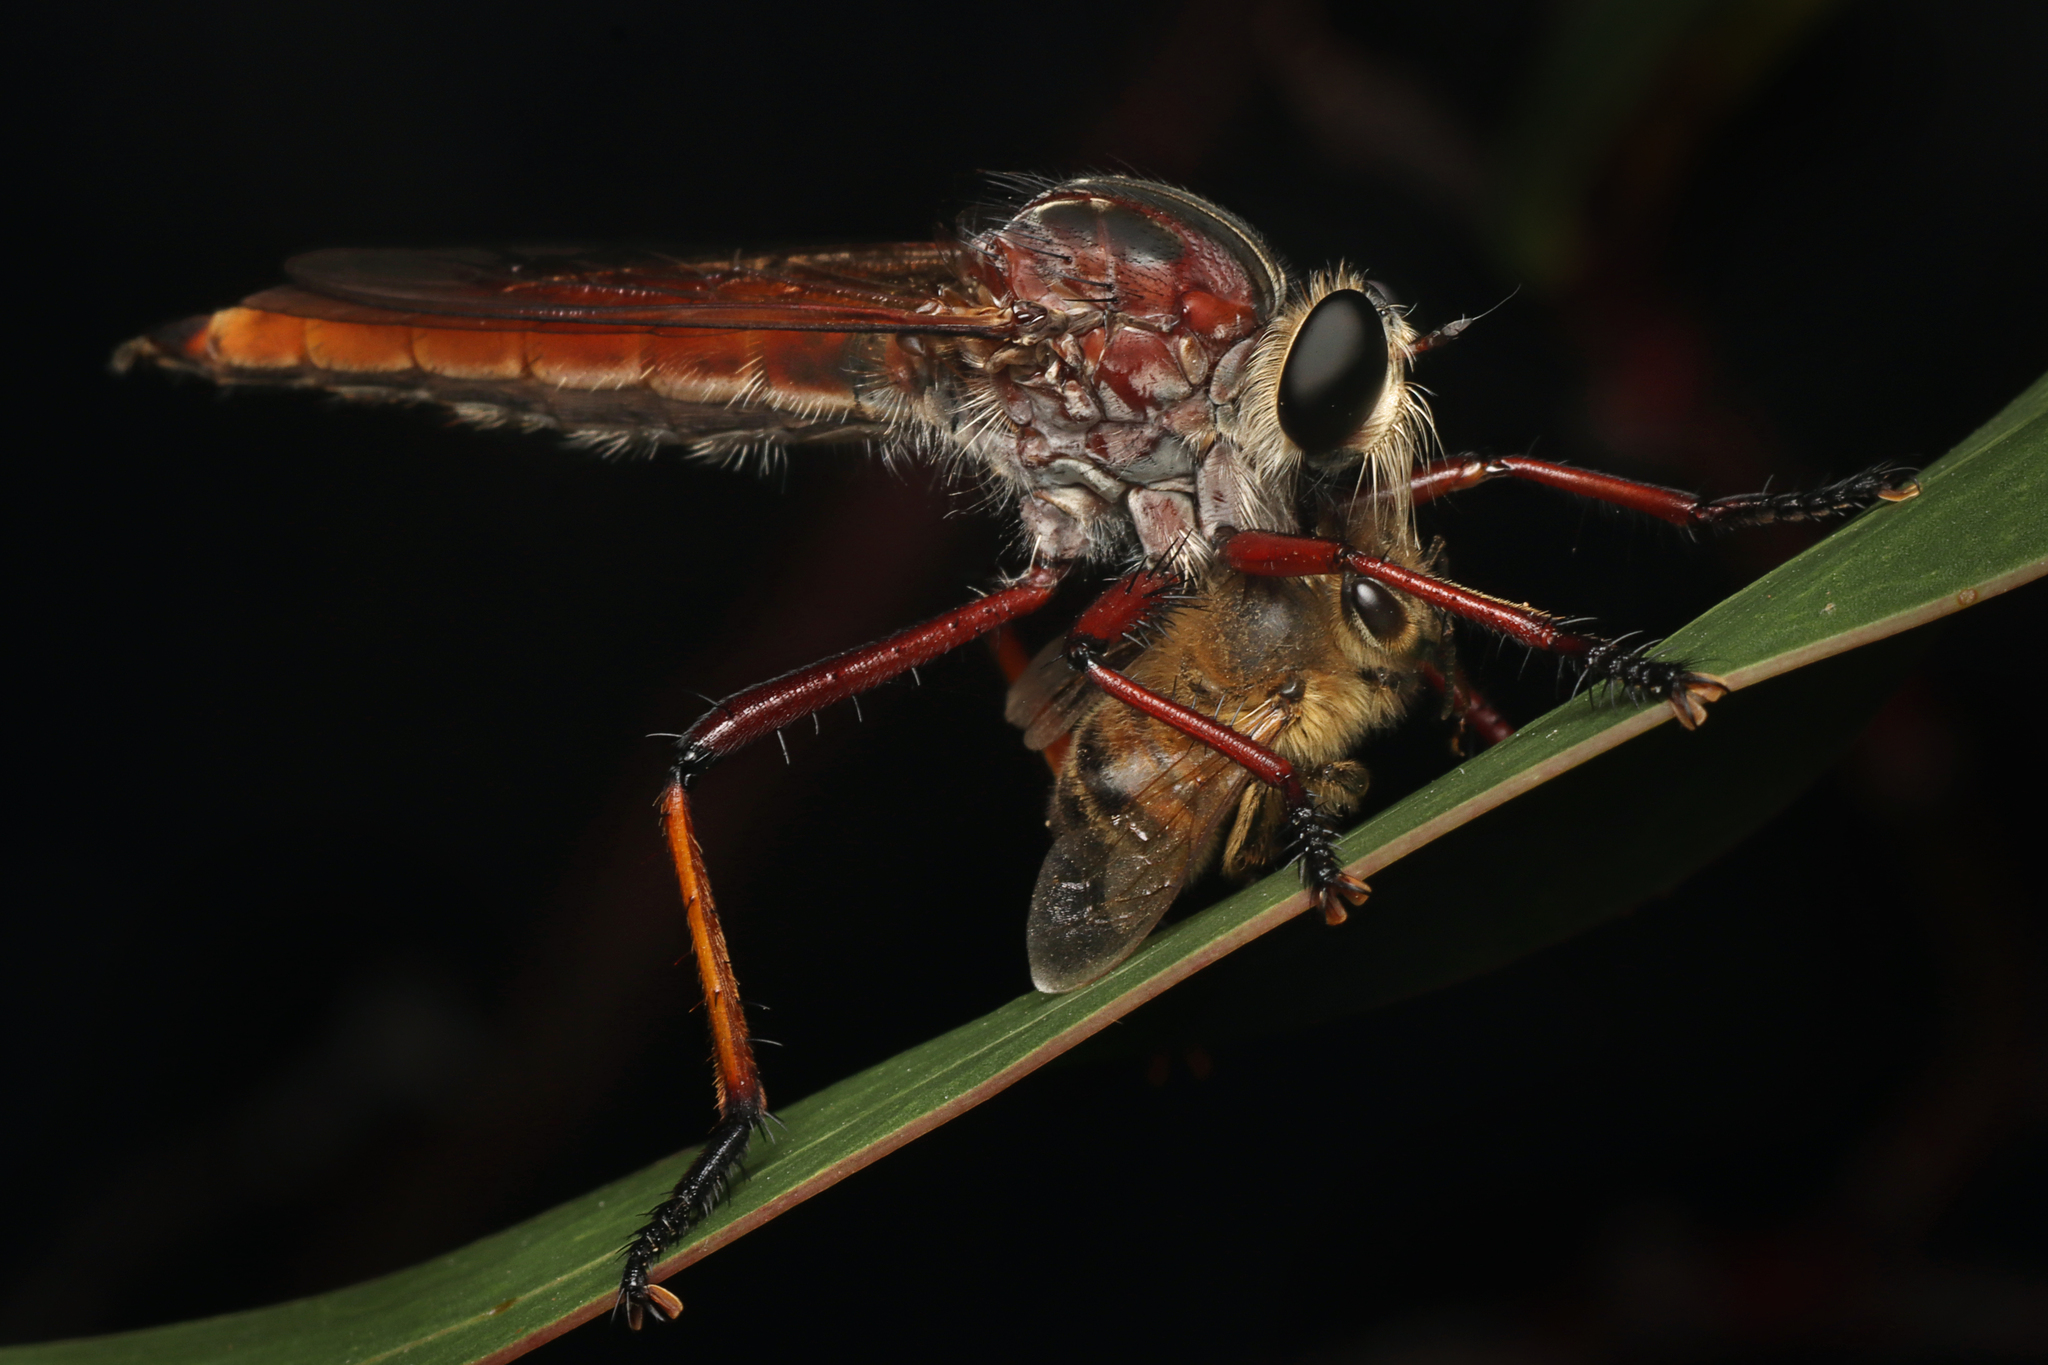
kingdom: Animalia
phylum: Arthropoda
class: Insecta
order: Diptera
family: Asilidae
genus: Colepia
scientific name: Colepia rufiventris
